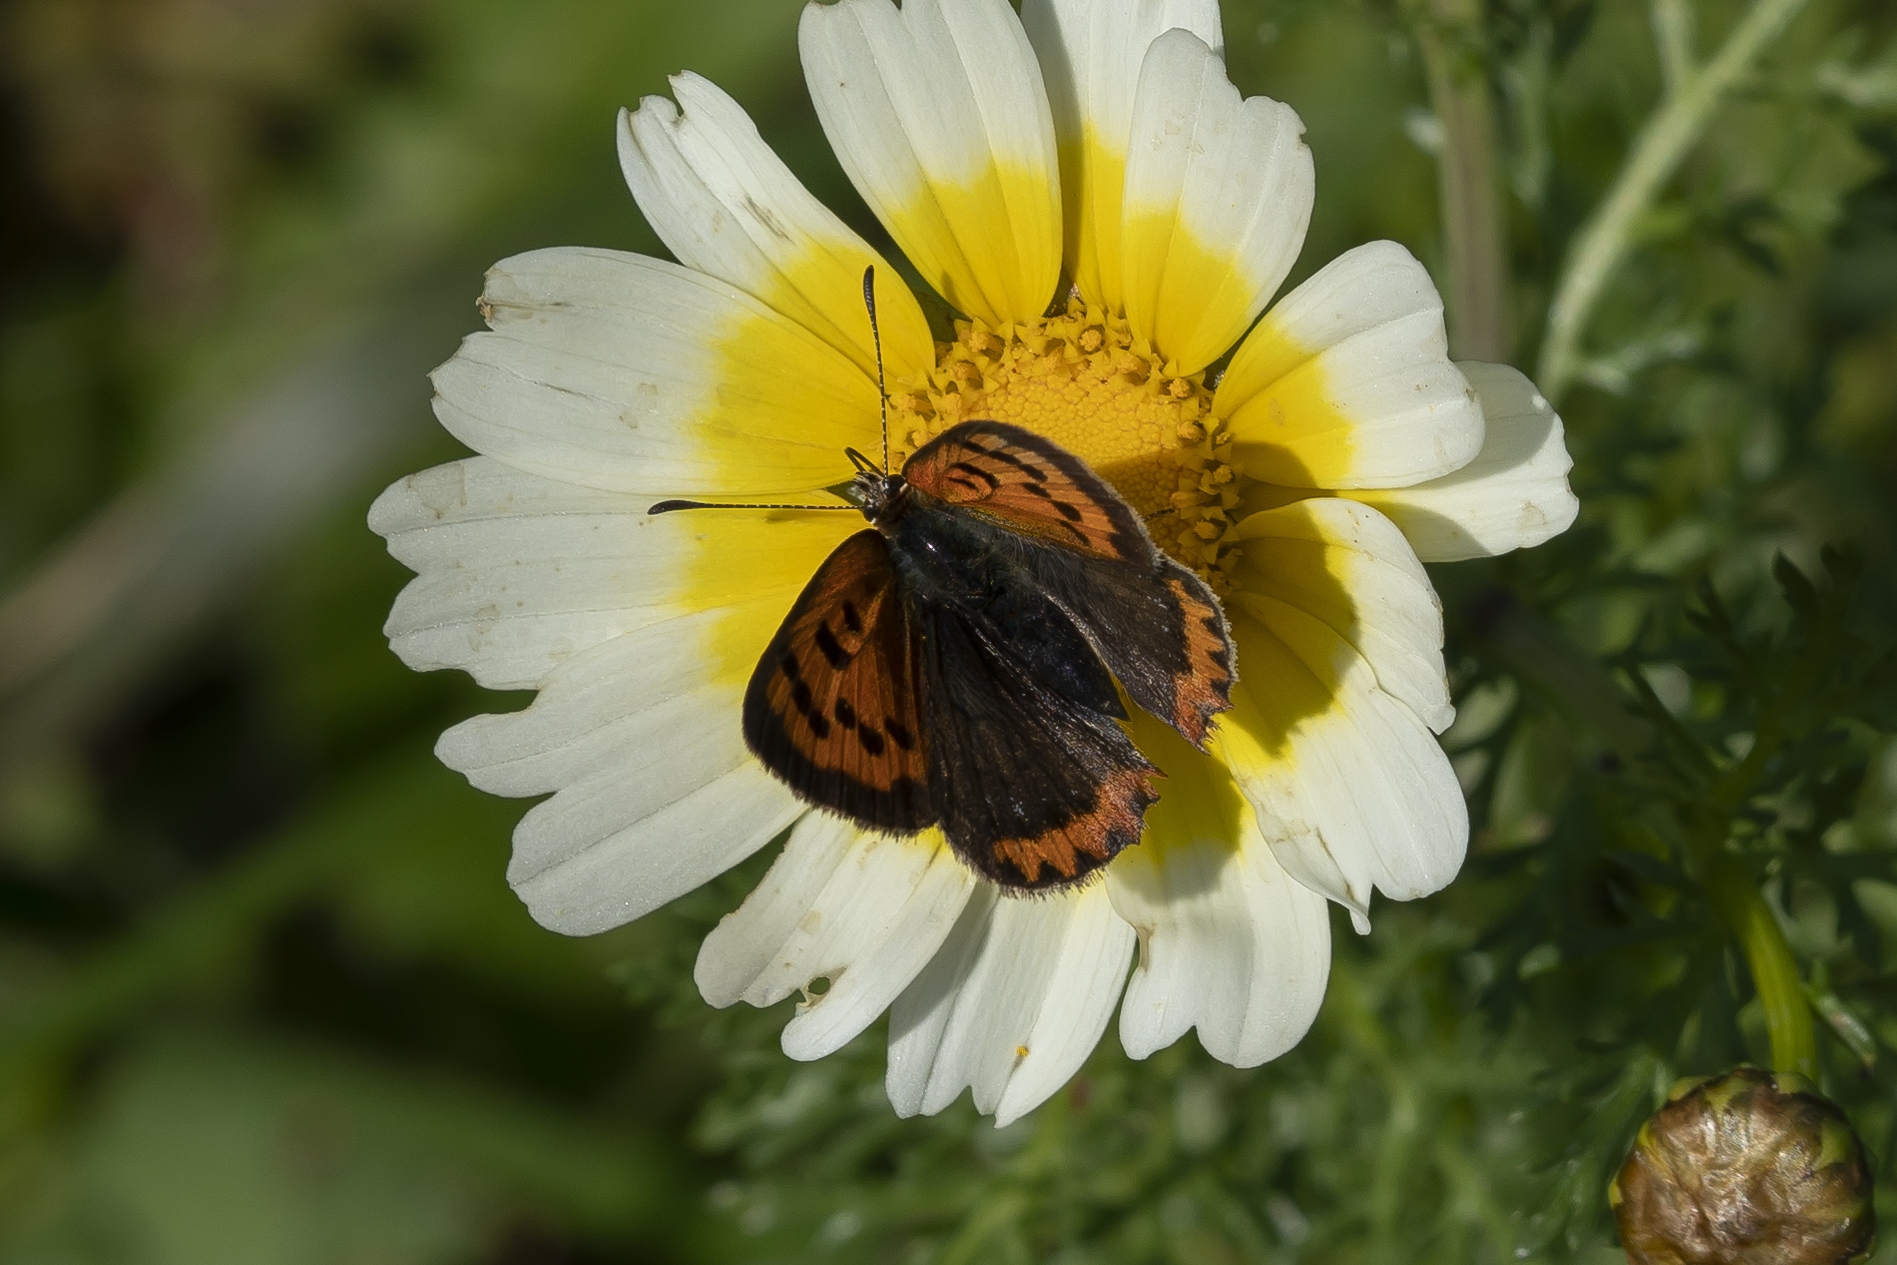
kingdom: Animalia
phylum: Arthropoda
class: Insecta
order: Lepidoptera
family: Lycaenidae
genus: Lycaena
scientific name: Lycaena phlaeas
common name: Small copper
